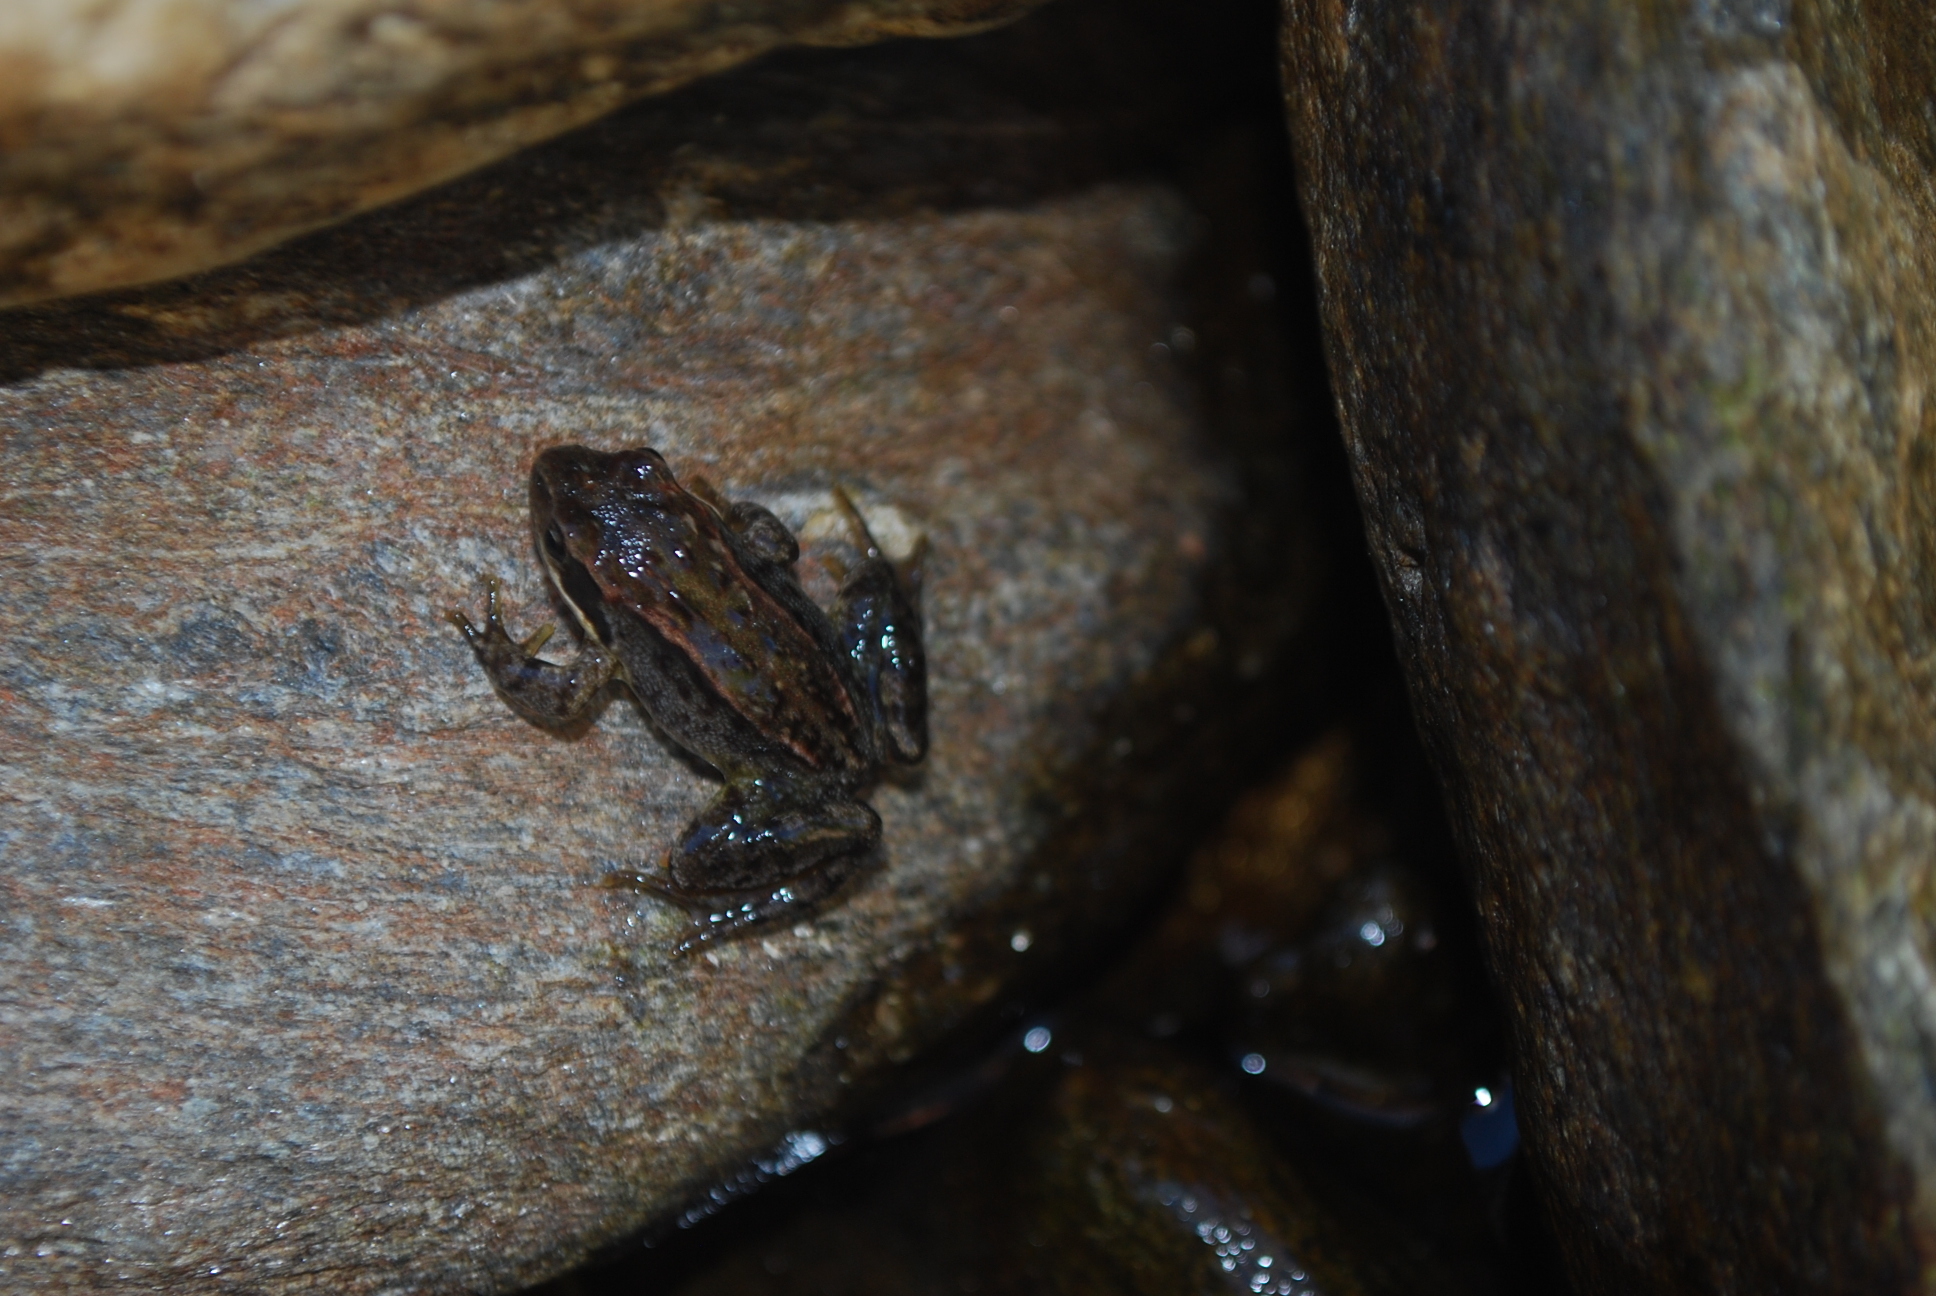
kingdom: Animalia
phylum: Chordata
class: Amphibia
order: Anura
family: Ranidae
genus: Rana
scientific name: Rana temporaria
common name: Common frog
